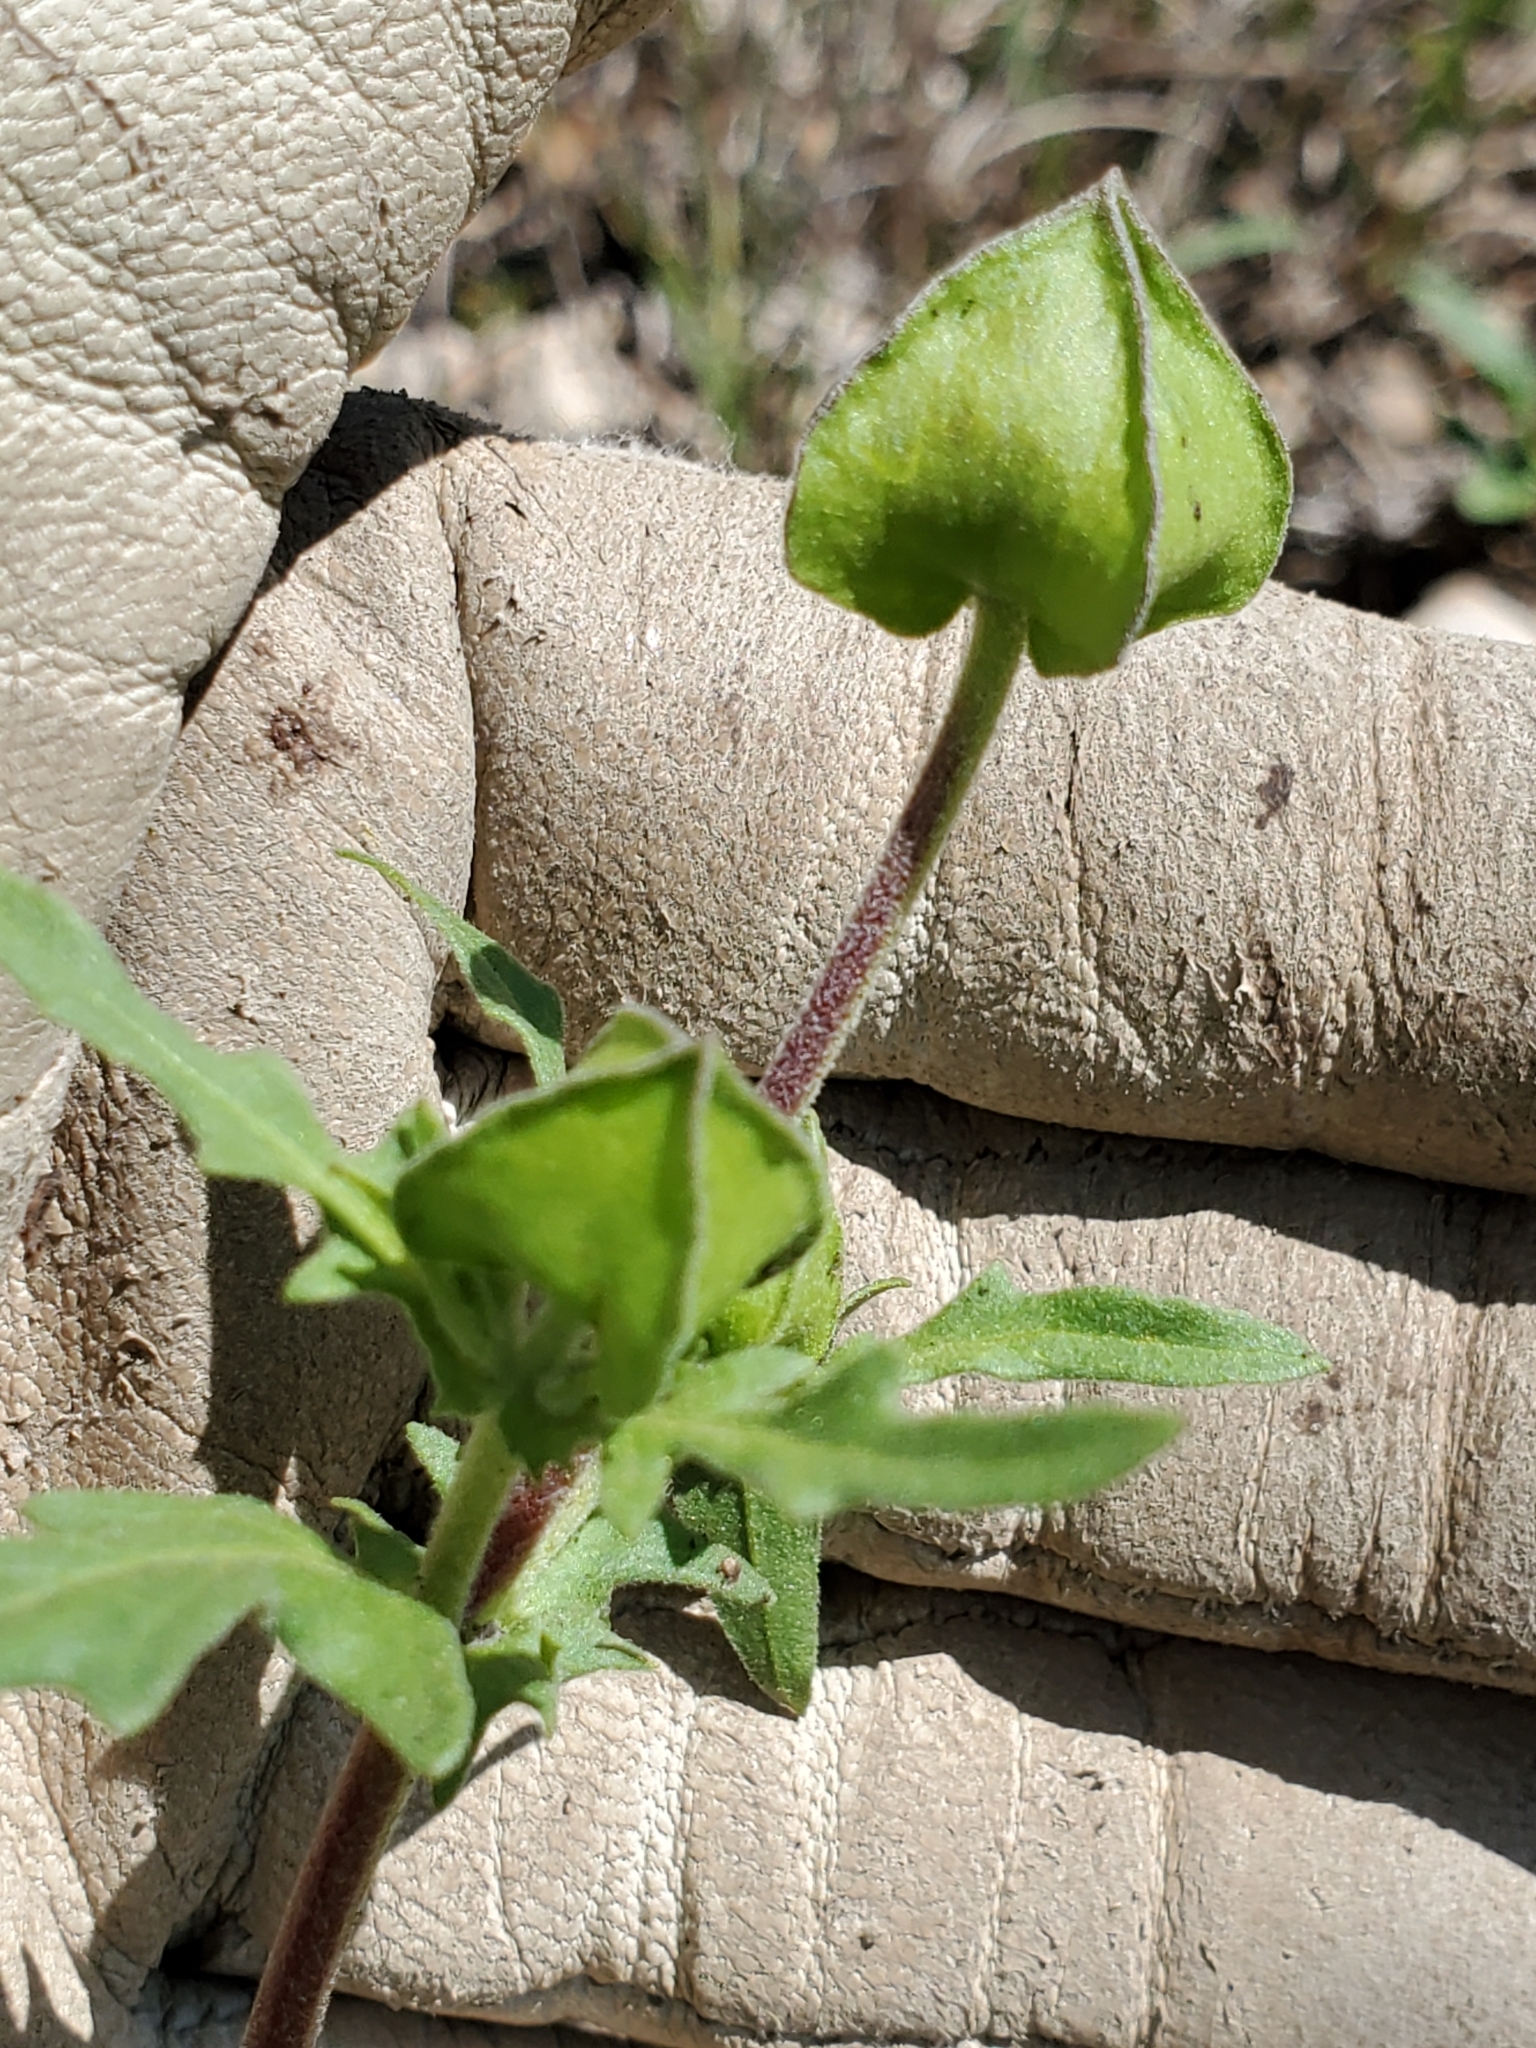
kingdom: Plantae
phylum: Tracheophyta
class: Magnoliopsida
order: Asterales
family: Asteraceae
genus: Tetragonotheca
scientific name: Tetragonotheca texana
